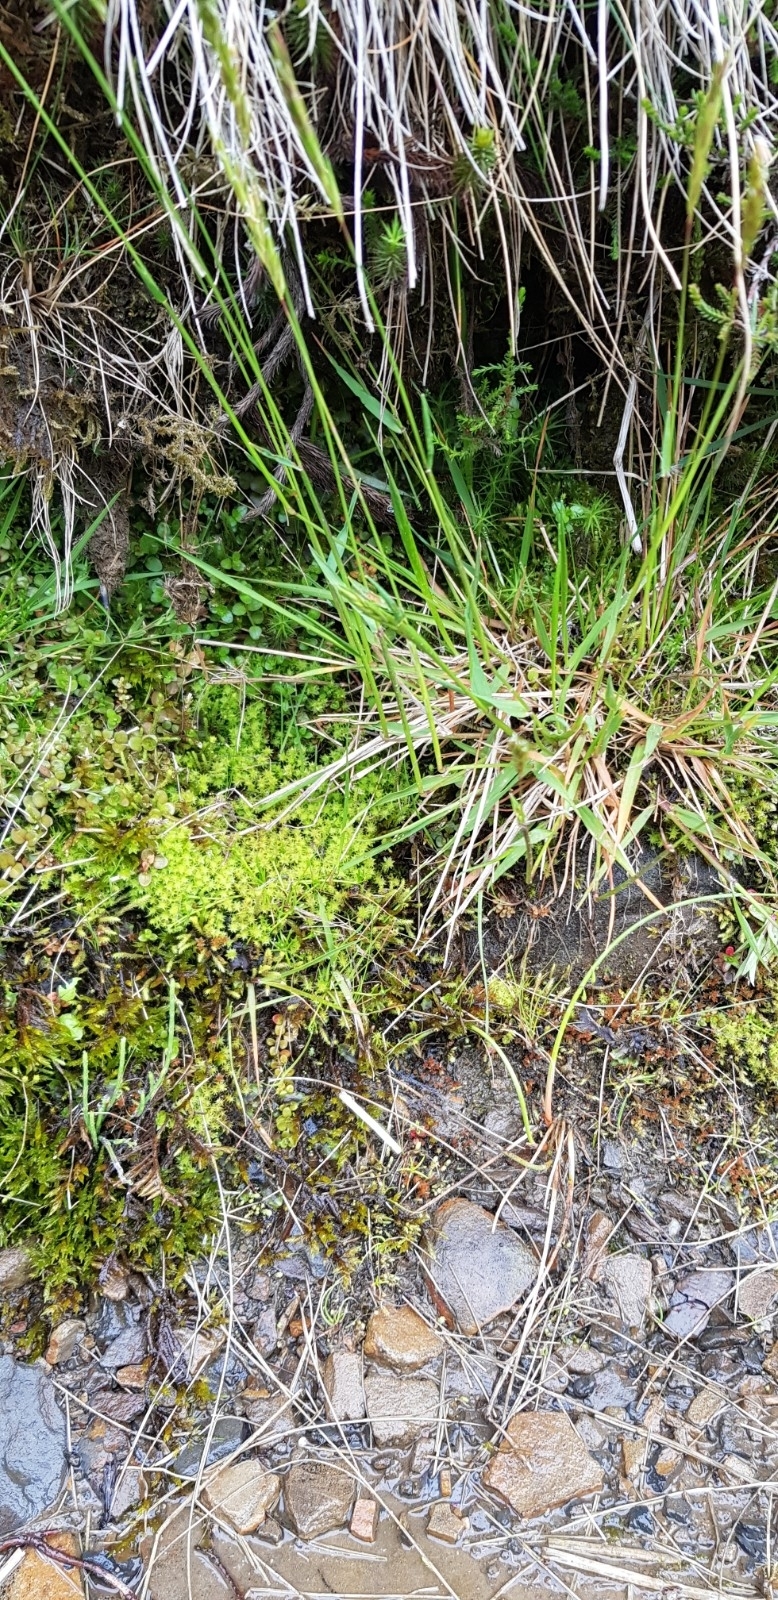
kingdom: Plantae
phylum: Bryophyta
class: Bryopsida
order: Dicranales
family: Aongstroemiaceae
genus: Diobelonella
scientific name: Diobelonella palustris
